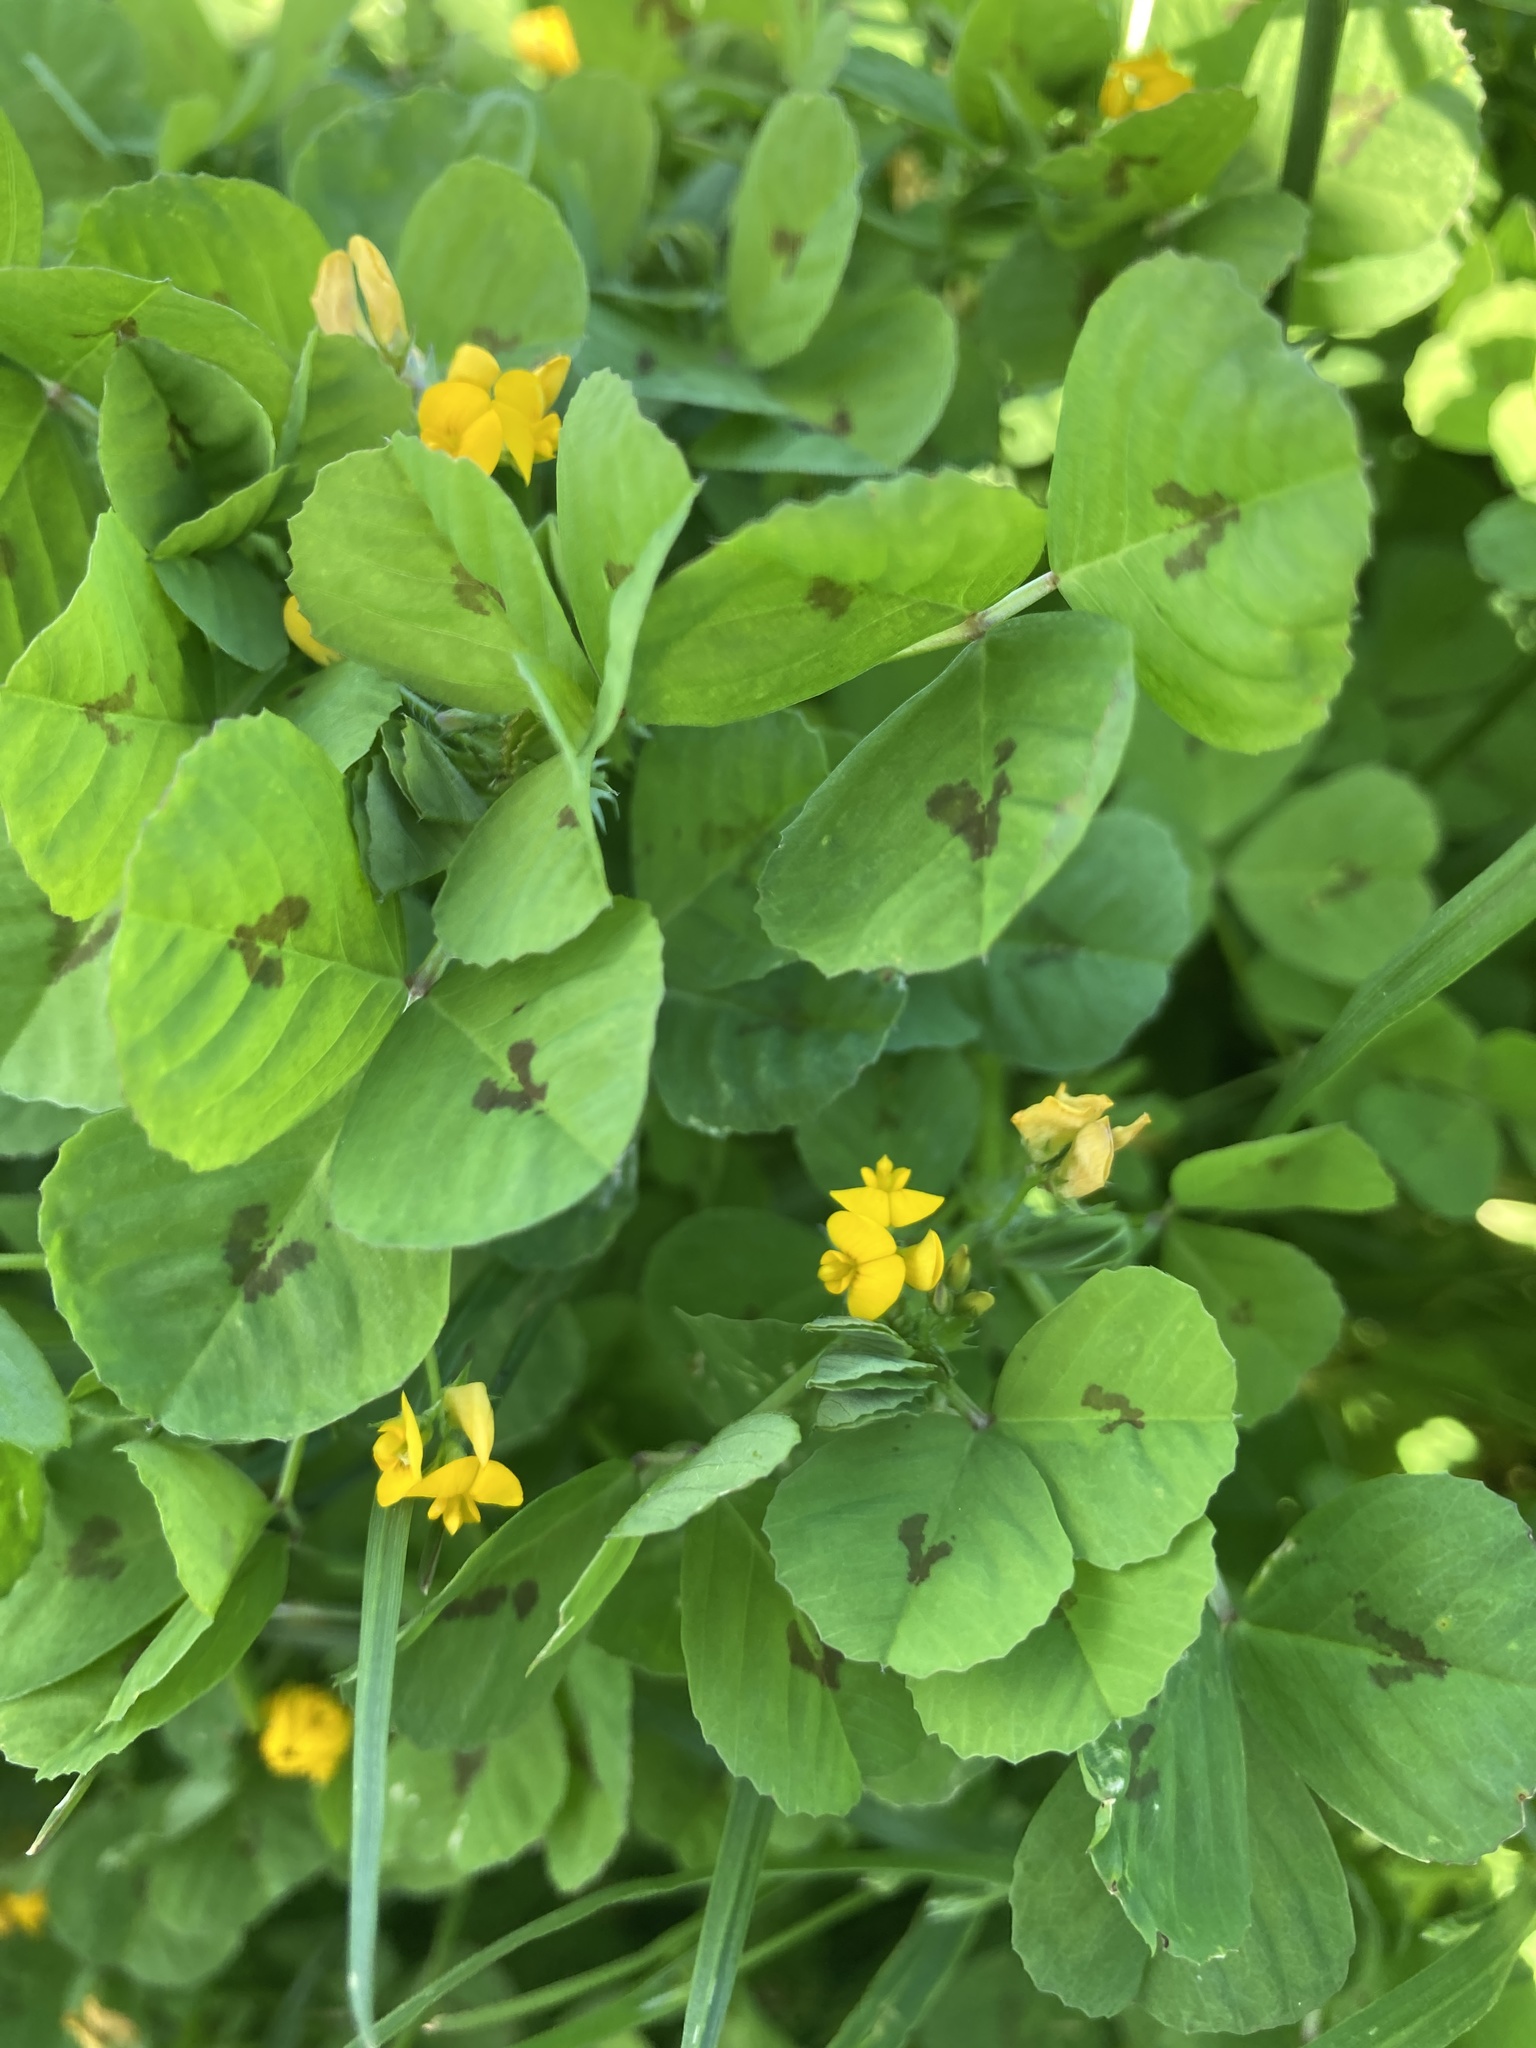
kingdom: Plantae
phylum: Tracheophyta
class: Magnoliopsida
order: Fabales
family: Fabaceae
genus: Medicago
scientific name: Medicago arabica
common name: Spotted medick
